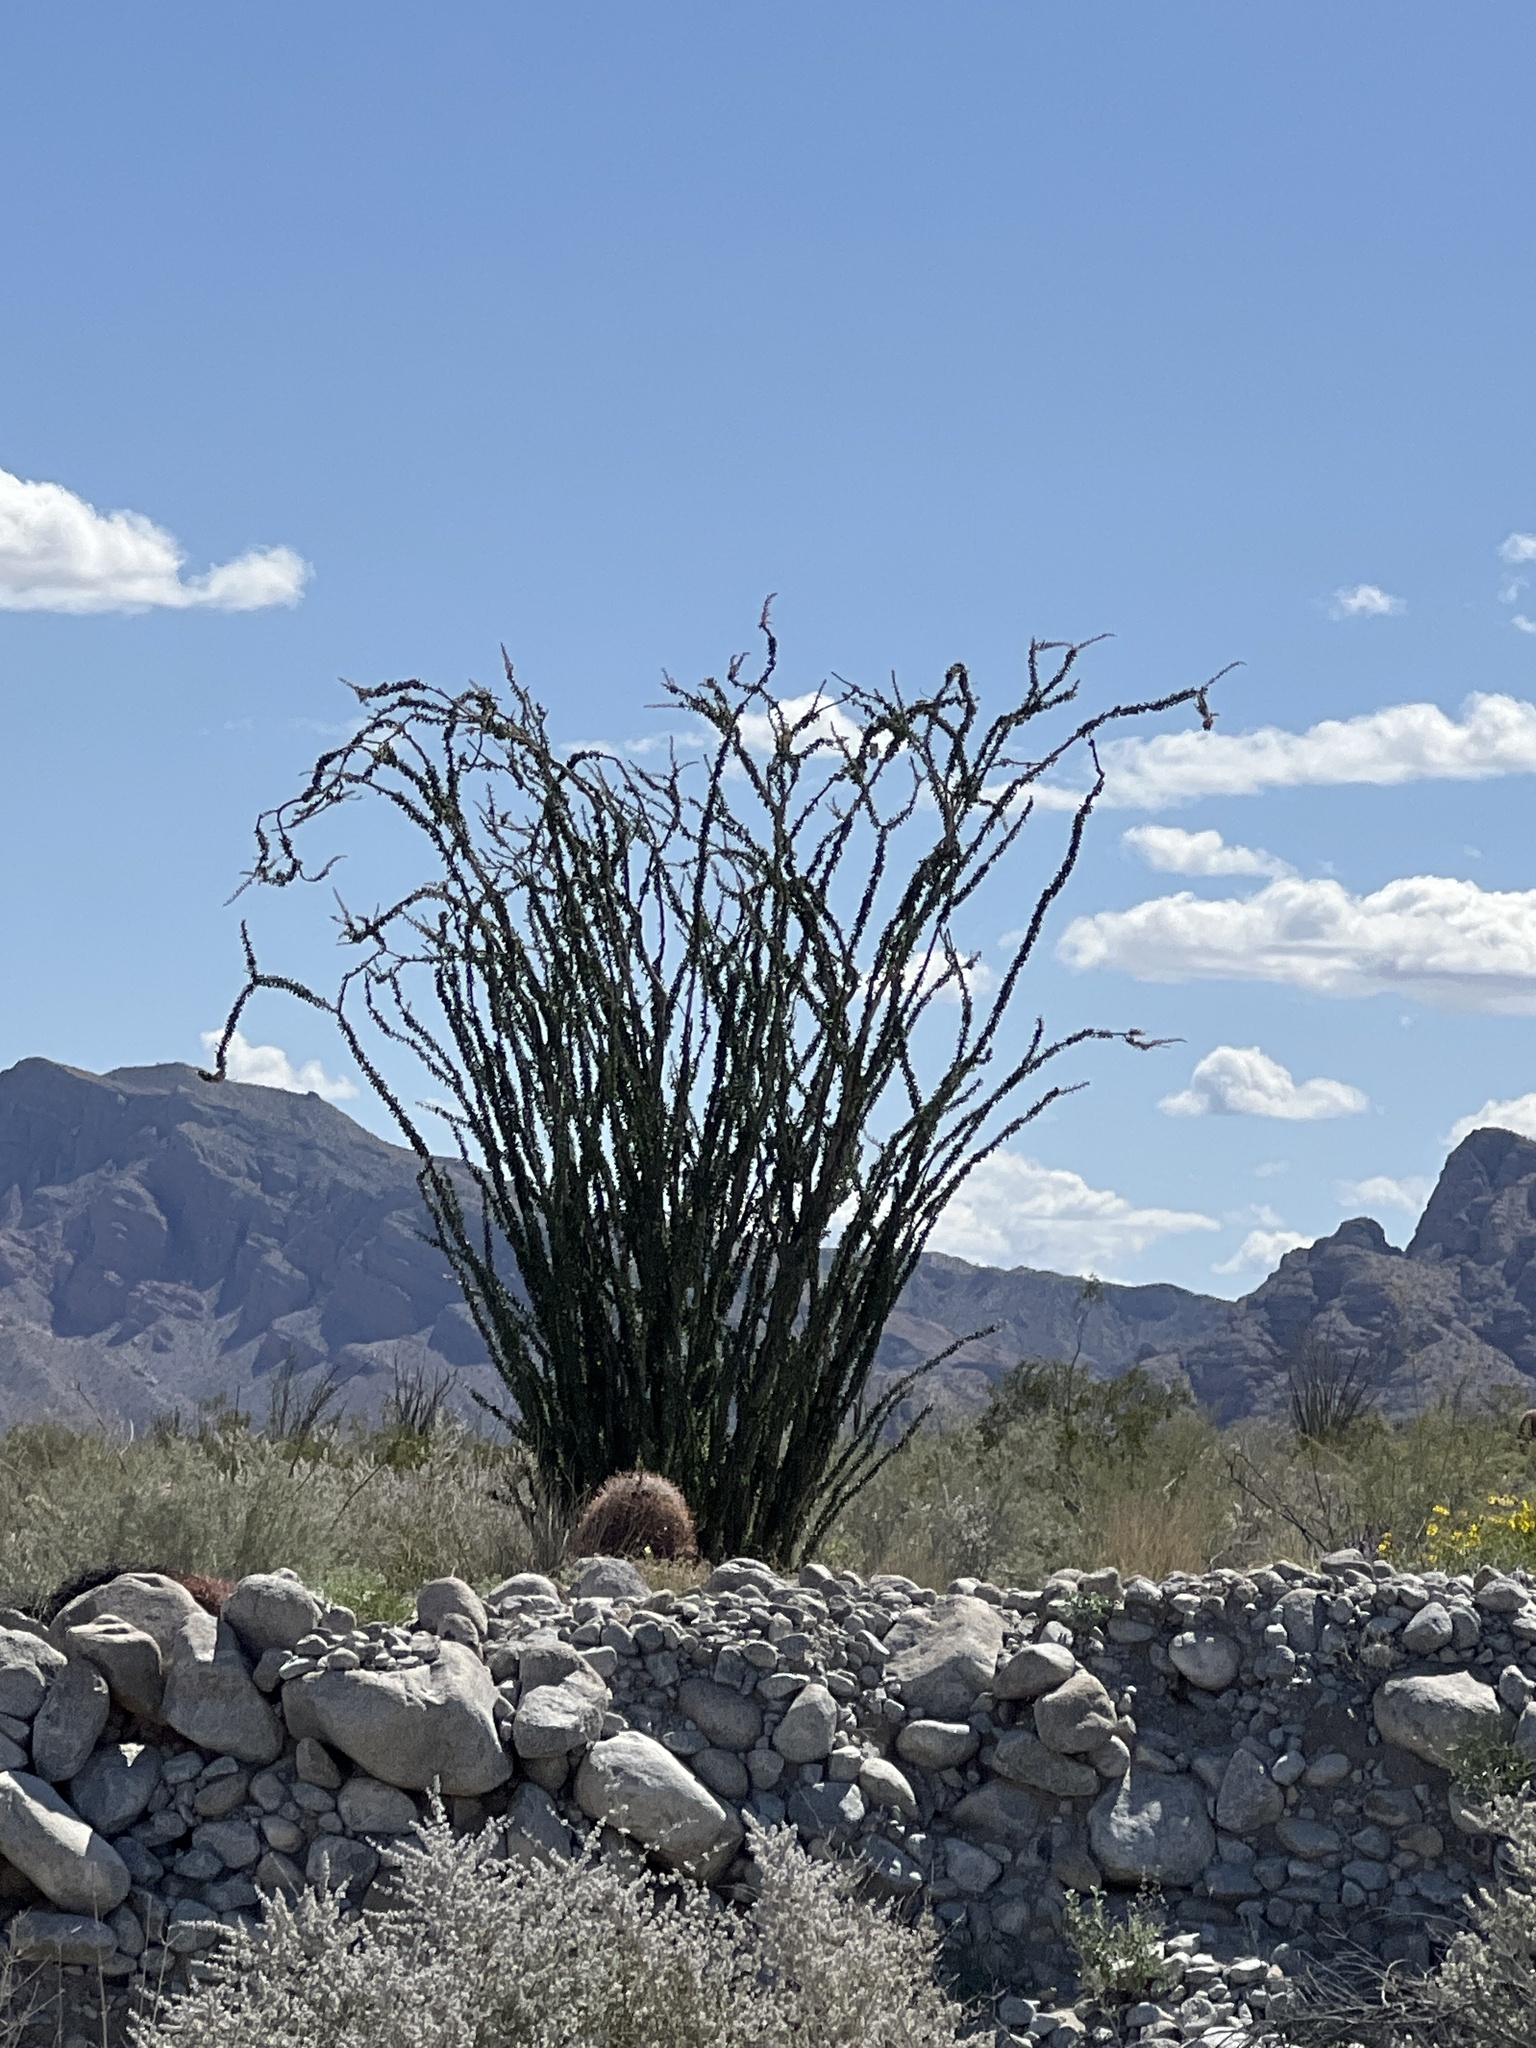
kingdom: Plantae
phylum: Tracheophyta
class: Magnoliopsida
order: Ericales
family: Fouquieriaceae
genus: Fouquieria
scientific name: Fouquieria splendens
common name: Vine-cactus
